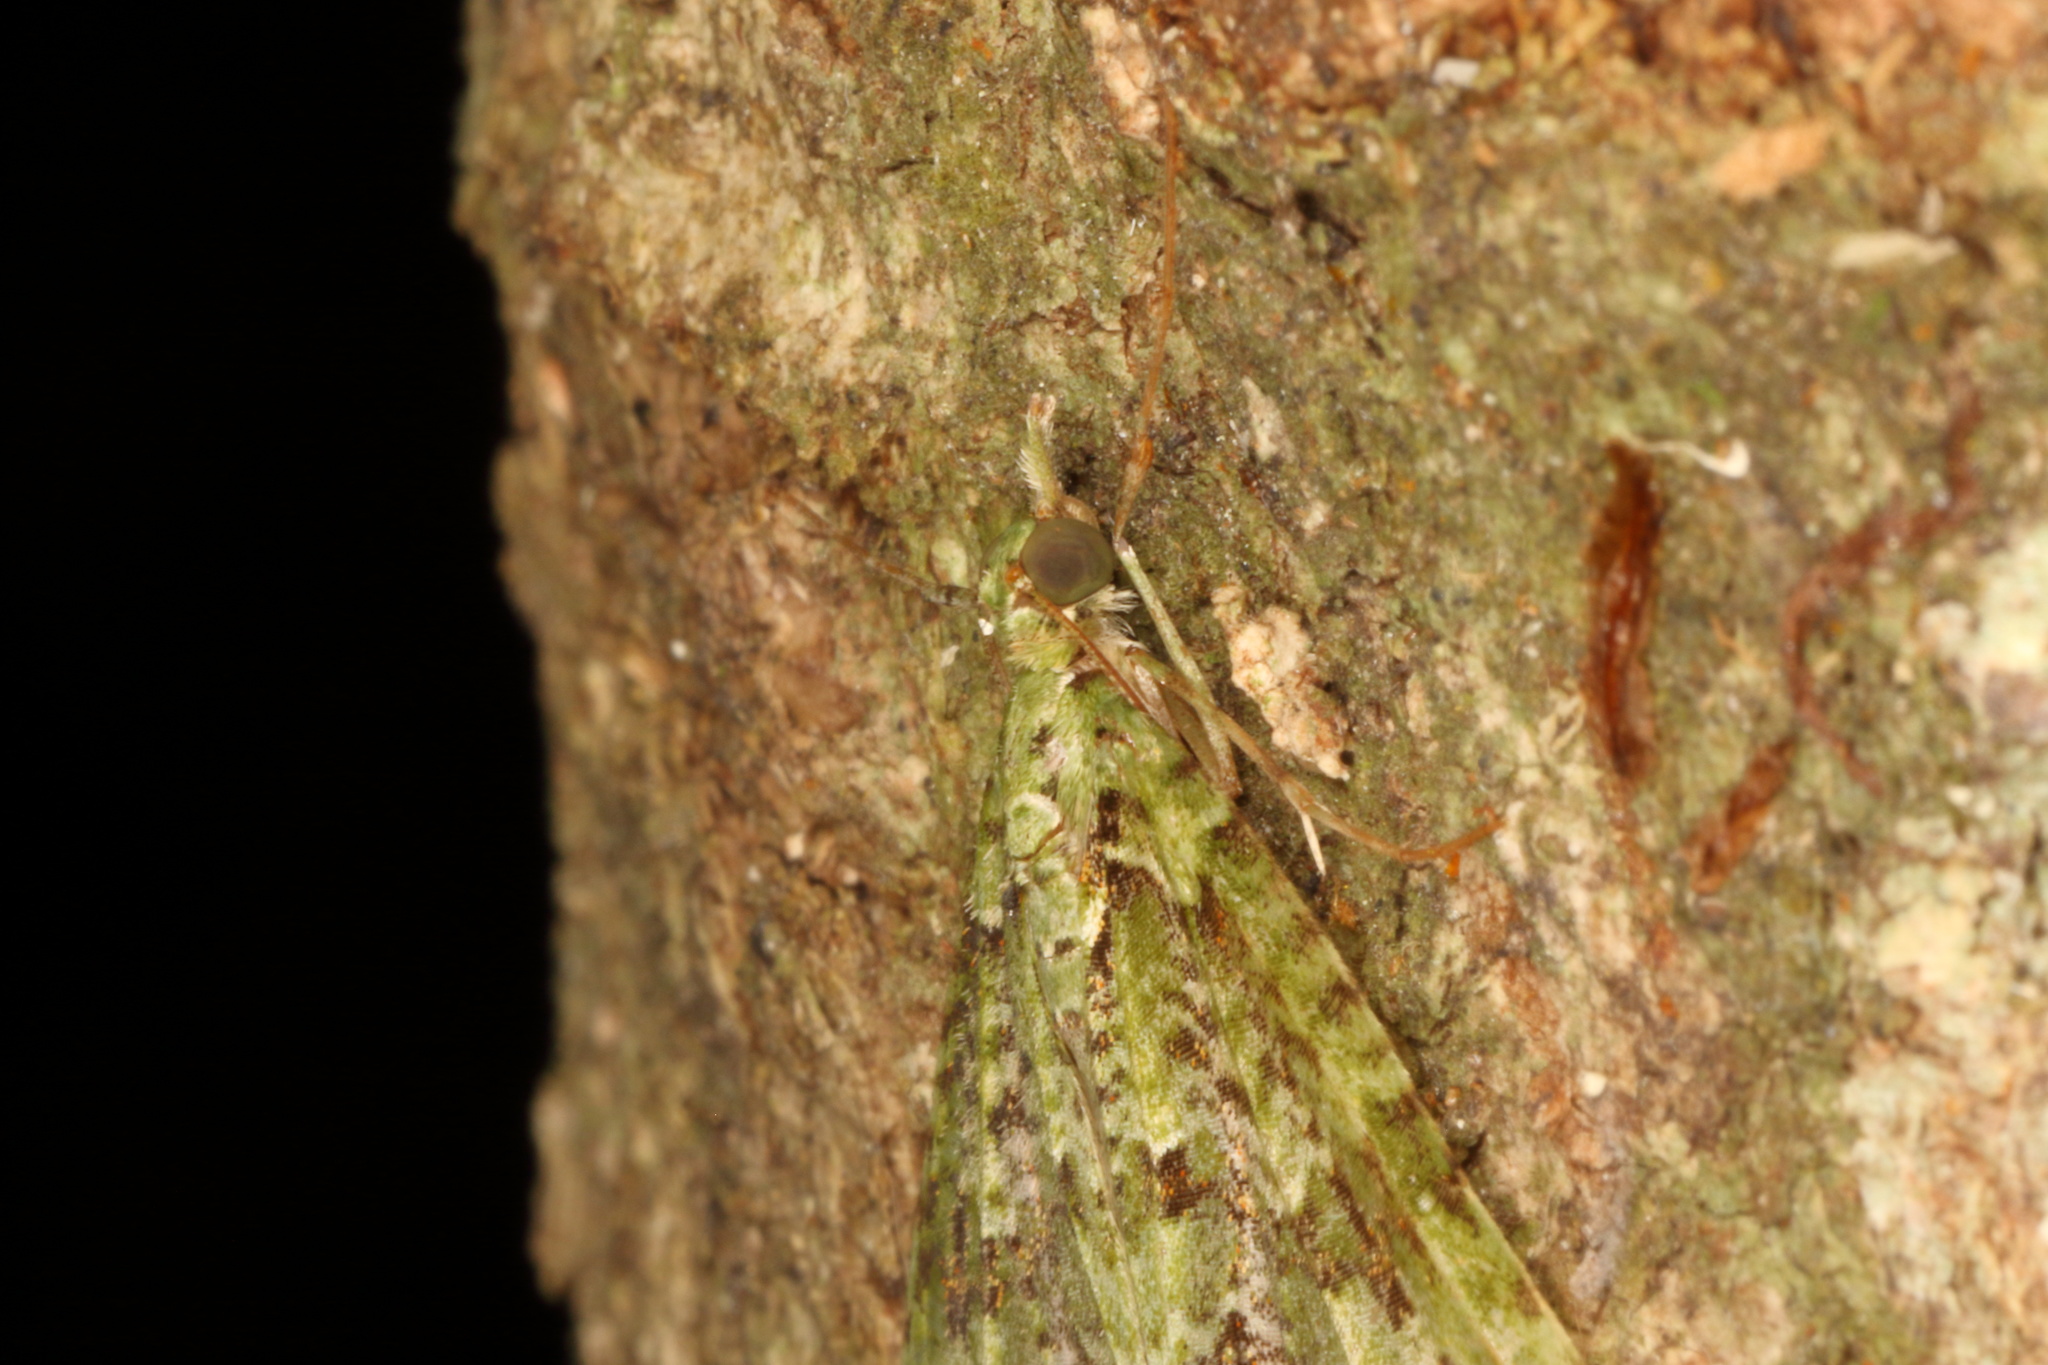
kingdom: Animalia
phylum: Arthropoda
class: Insecta
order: Lepidoptera
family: Geometridae
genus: Tatosoma
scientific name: Tatosoma tipulata
